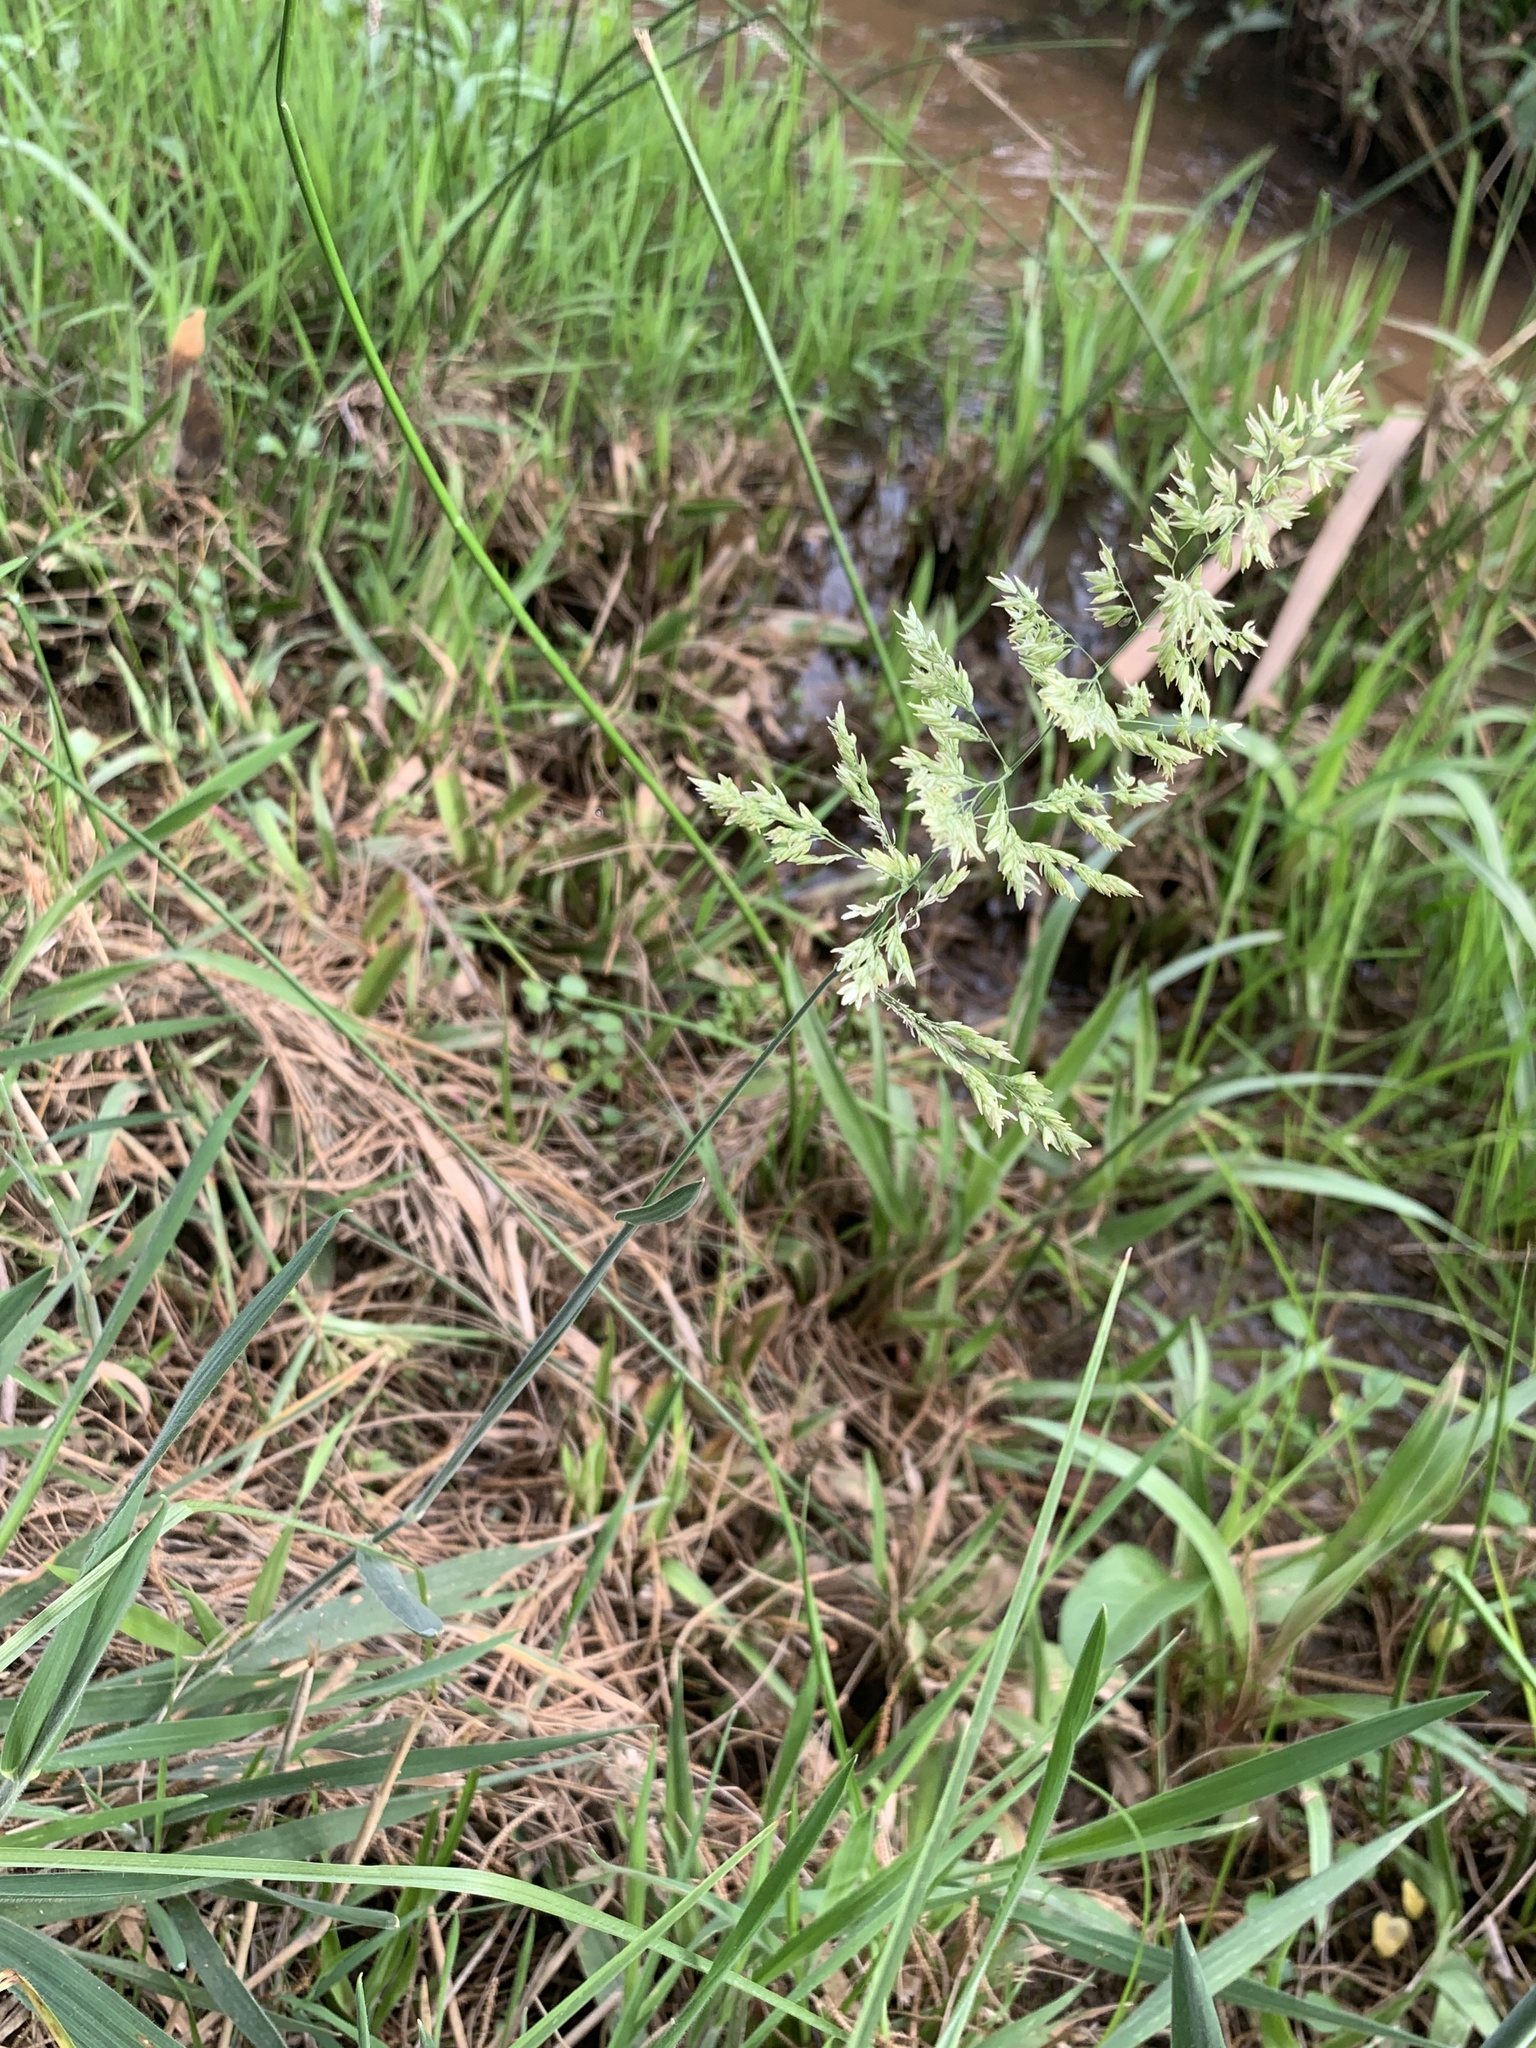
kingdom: Plantae
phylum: Tracheophyta
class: Liliopsida
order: Poales
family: Poaceae
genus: Holcus
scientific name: Holcus lanatus
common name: Yorkshire-fog
